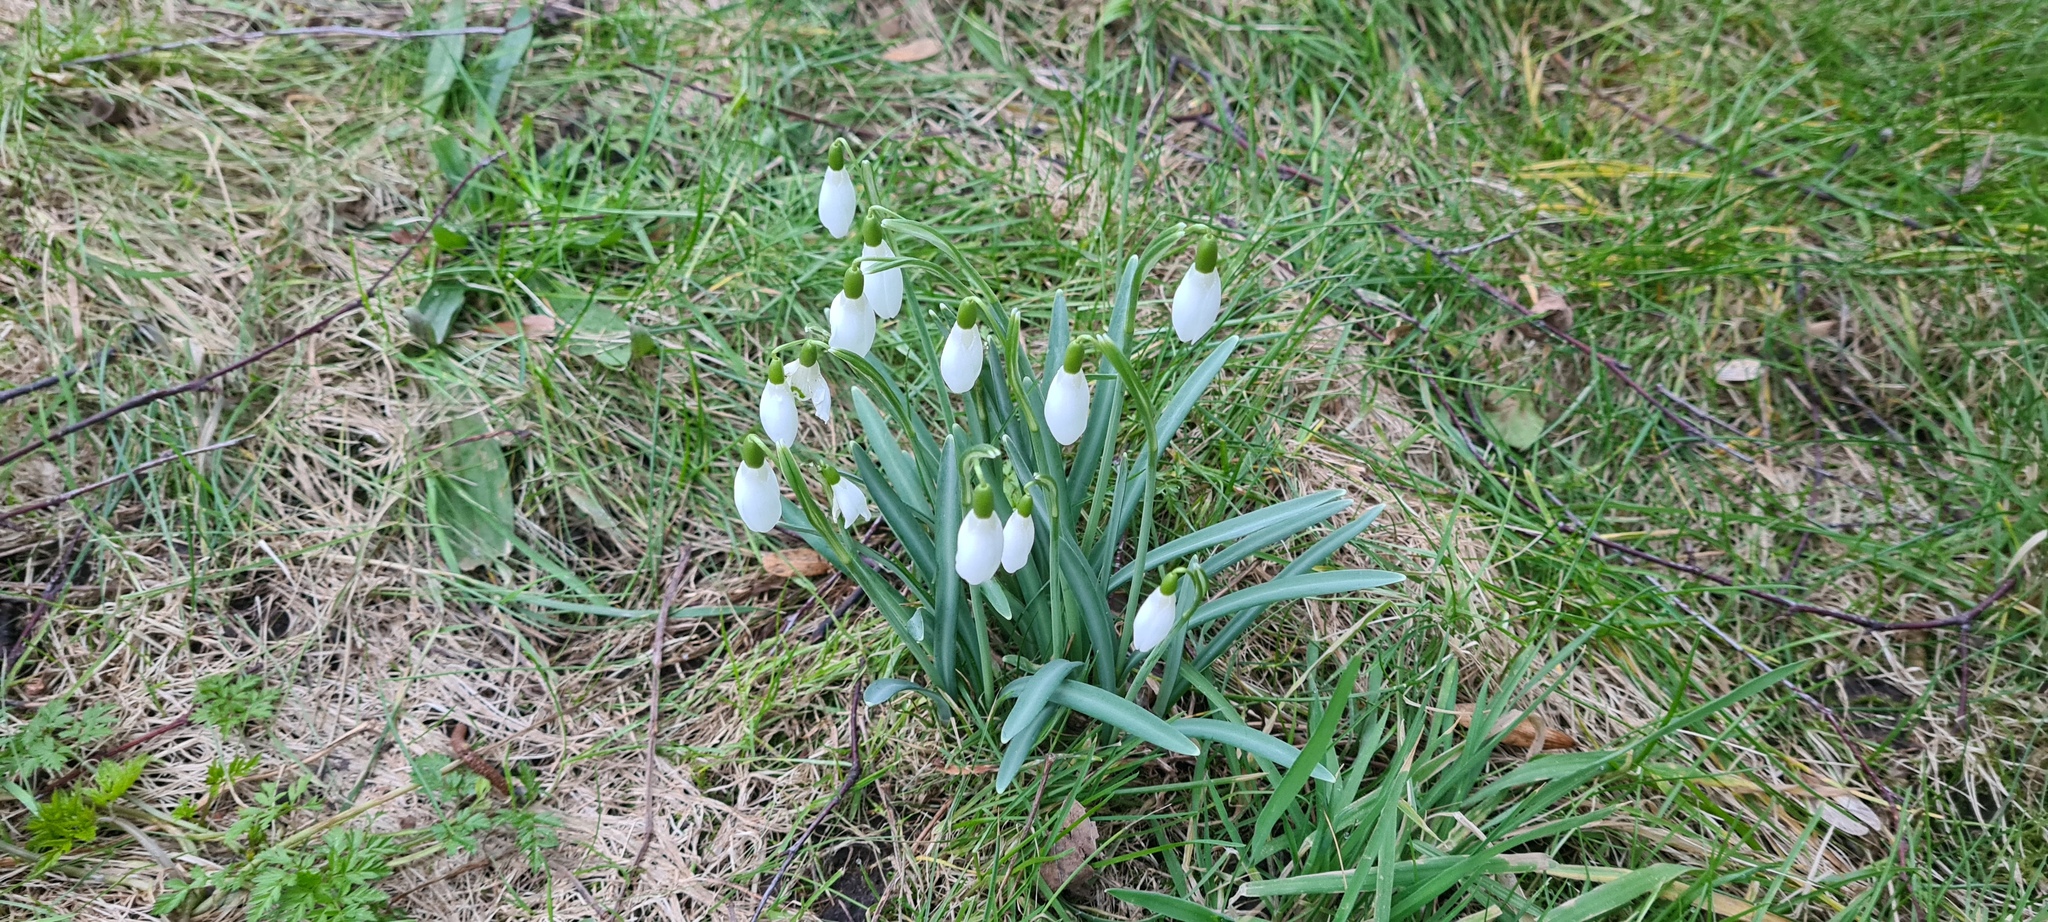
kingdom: Plantae
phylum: Tracheophyta
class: Liliopsida
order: Asparagales
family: Amaryllidaceae
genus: Galanthus
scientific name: Galanthus nivalis
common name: Snowdrop
